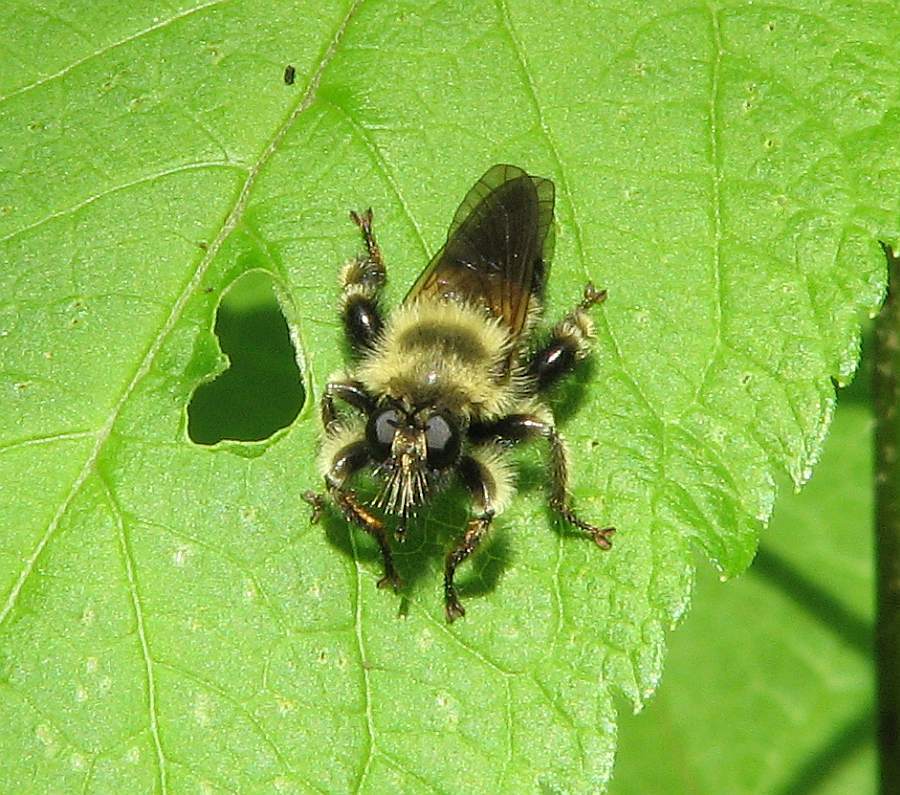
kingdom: Animalia
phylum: Arthropoda
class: Insecta
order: Diptera
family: Asilidae
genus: Laphria
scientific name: Laphria sacrator
